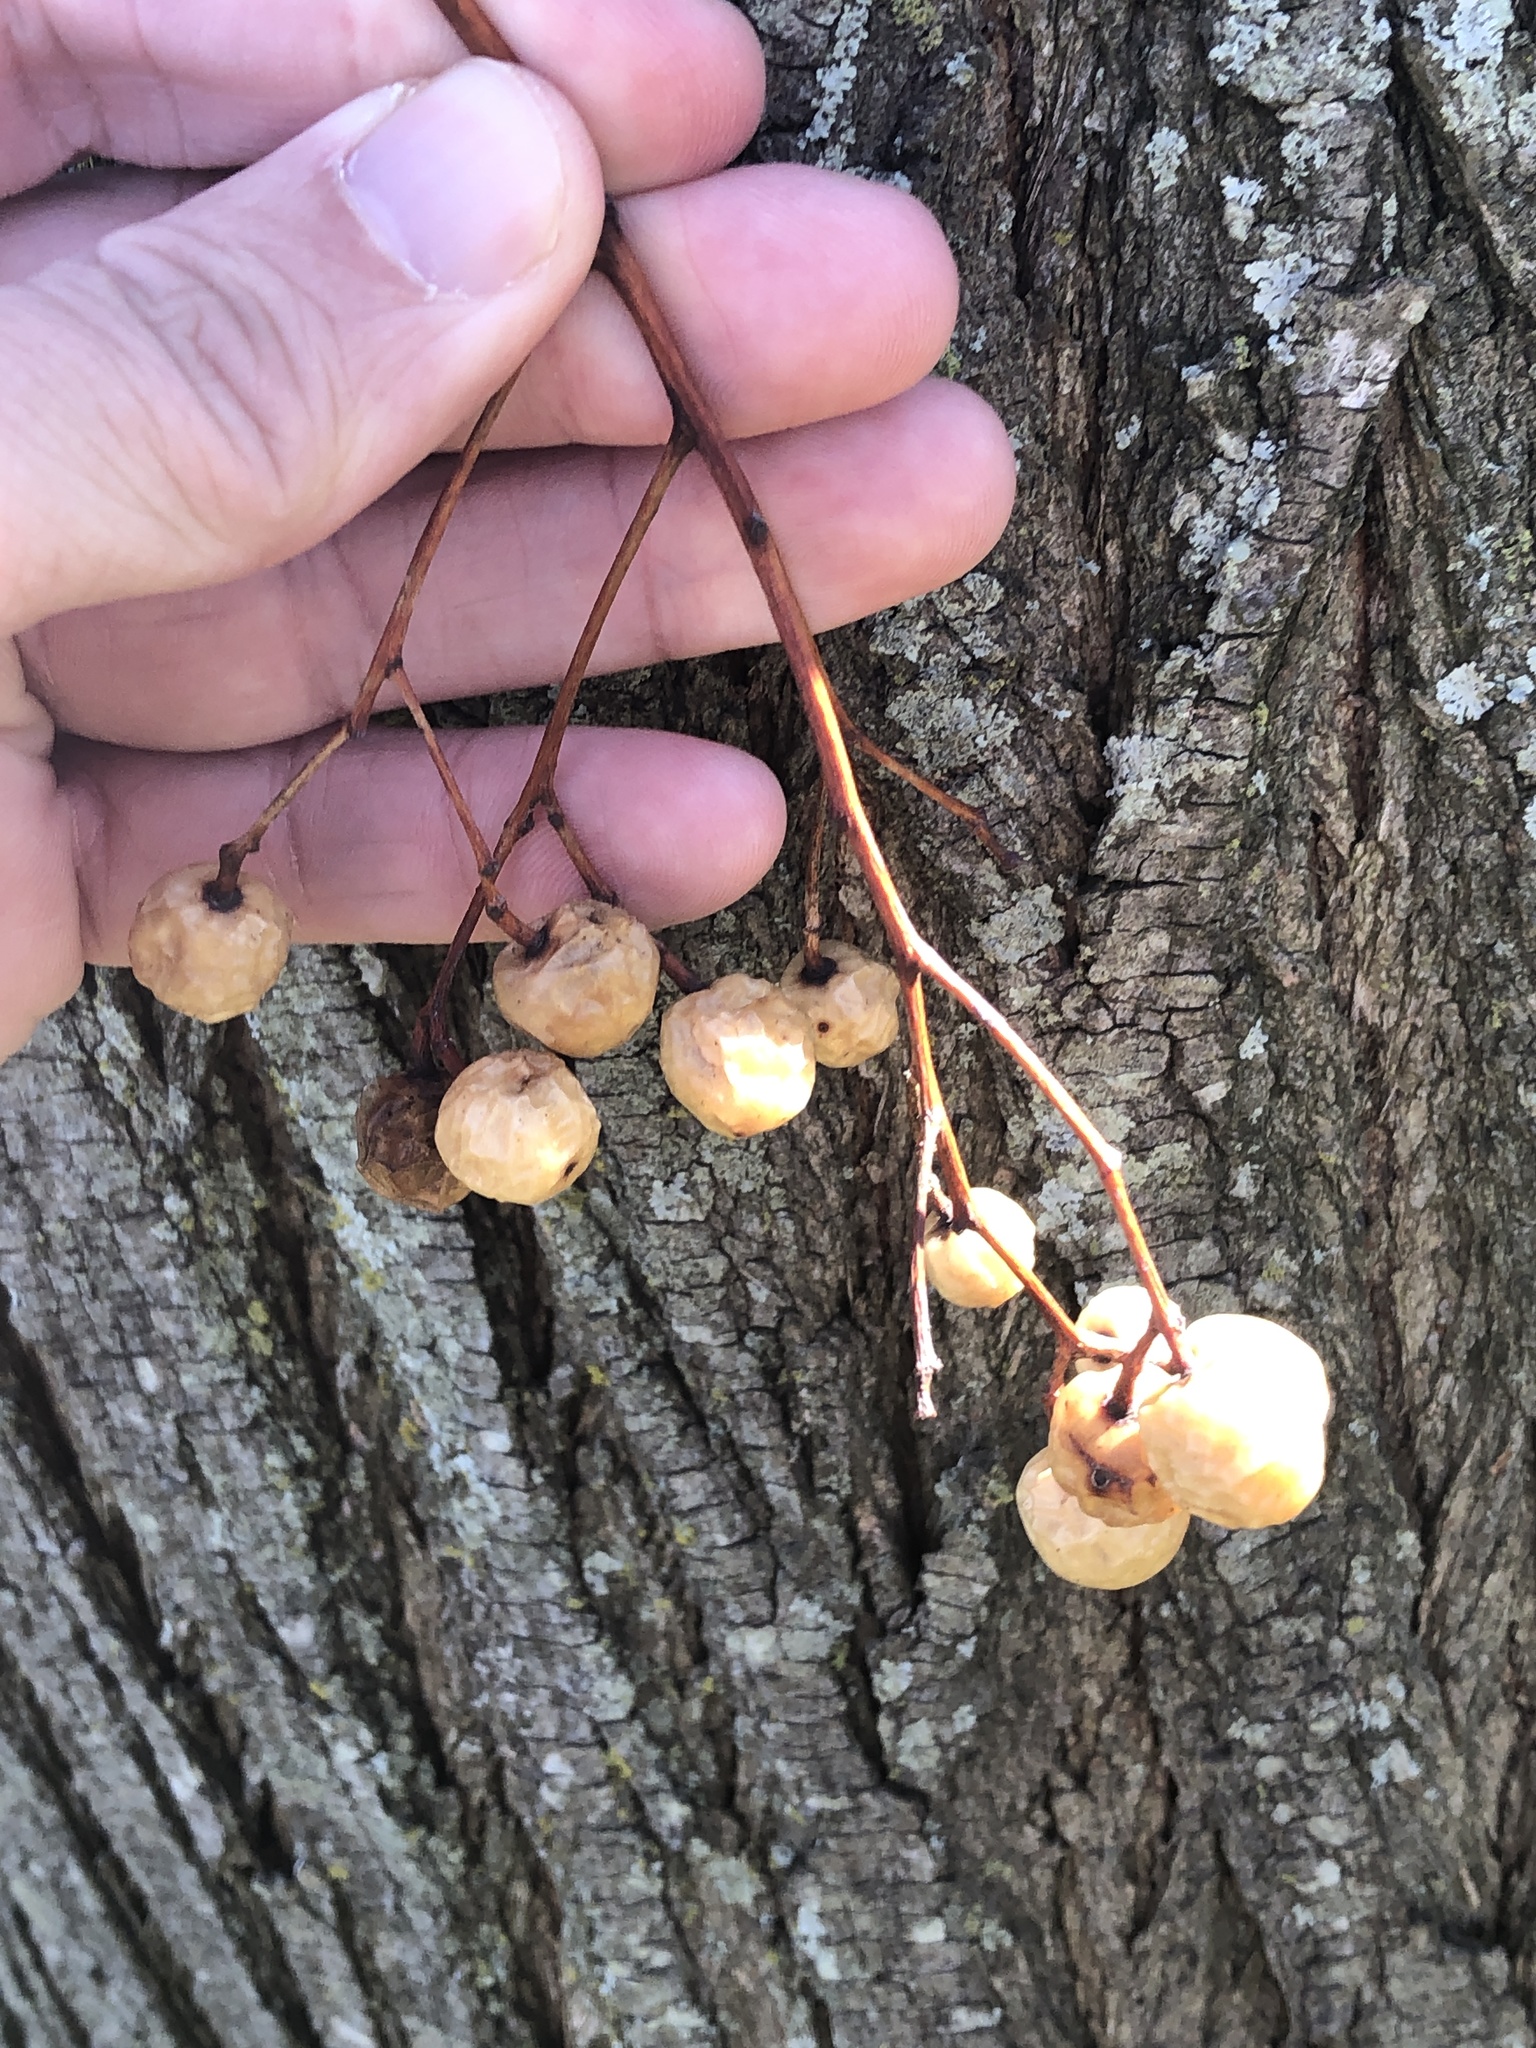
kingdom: Plantae
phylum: Tracheophyta
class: Magnoliopsida
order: Sapindales
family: Meliaceae
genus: Melia
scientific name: Melia azedarach
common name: Chinaberrytree
